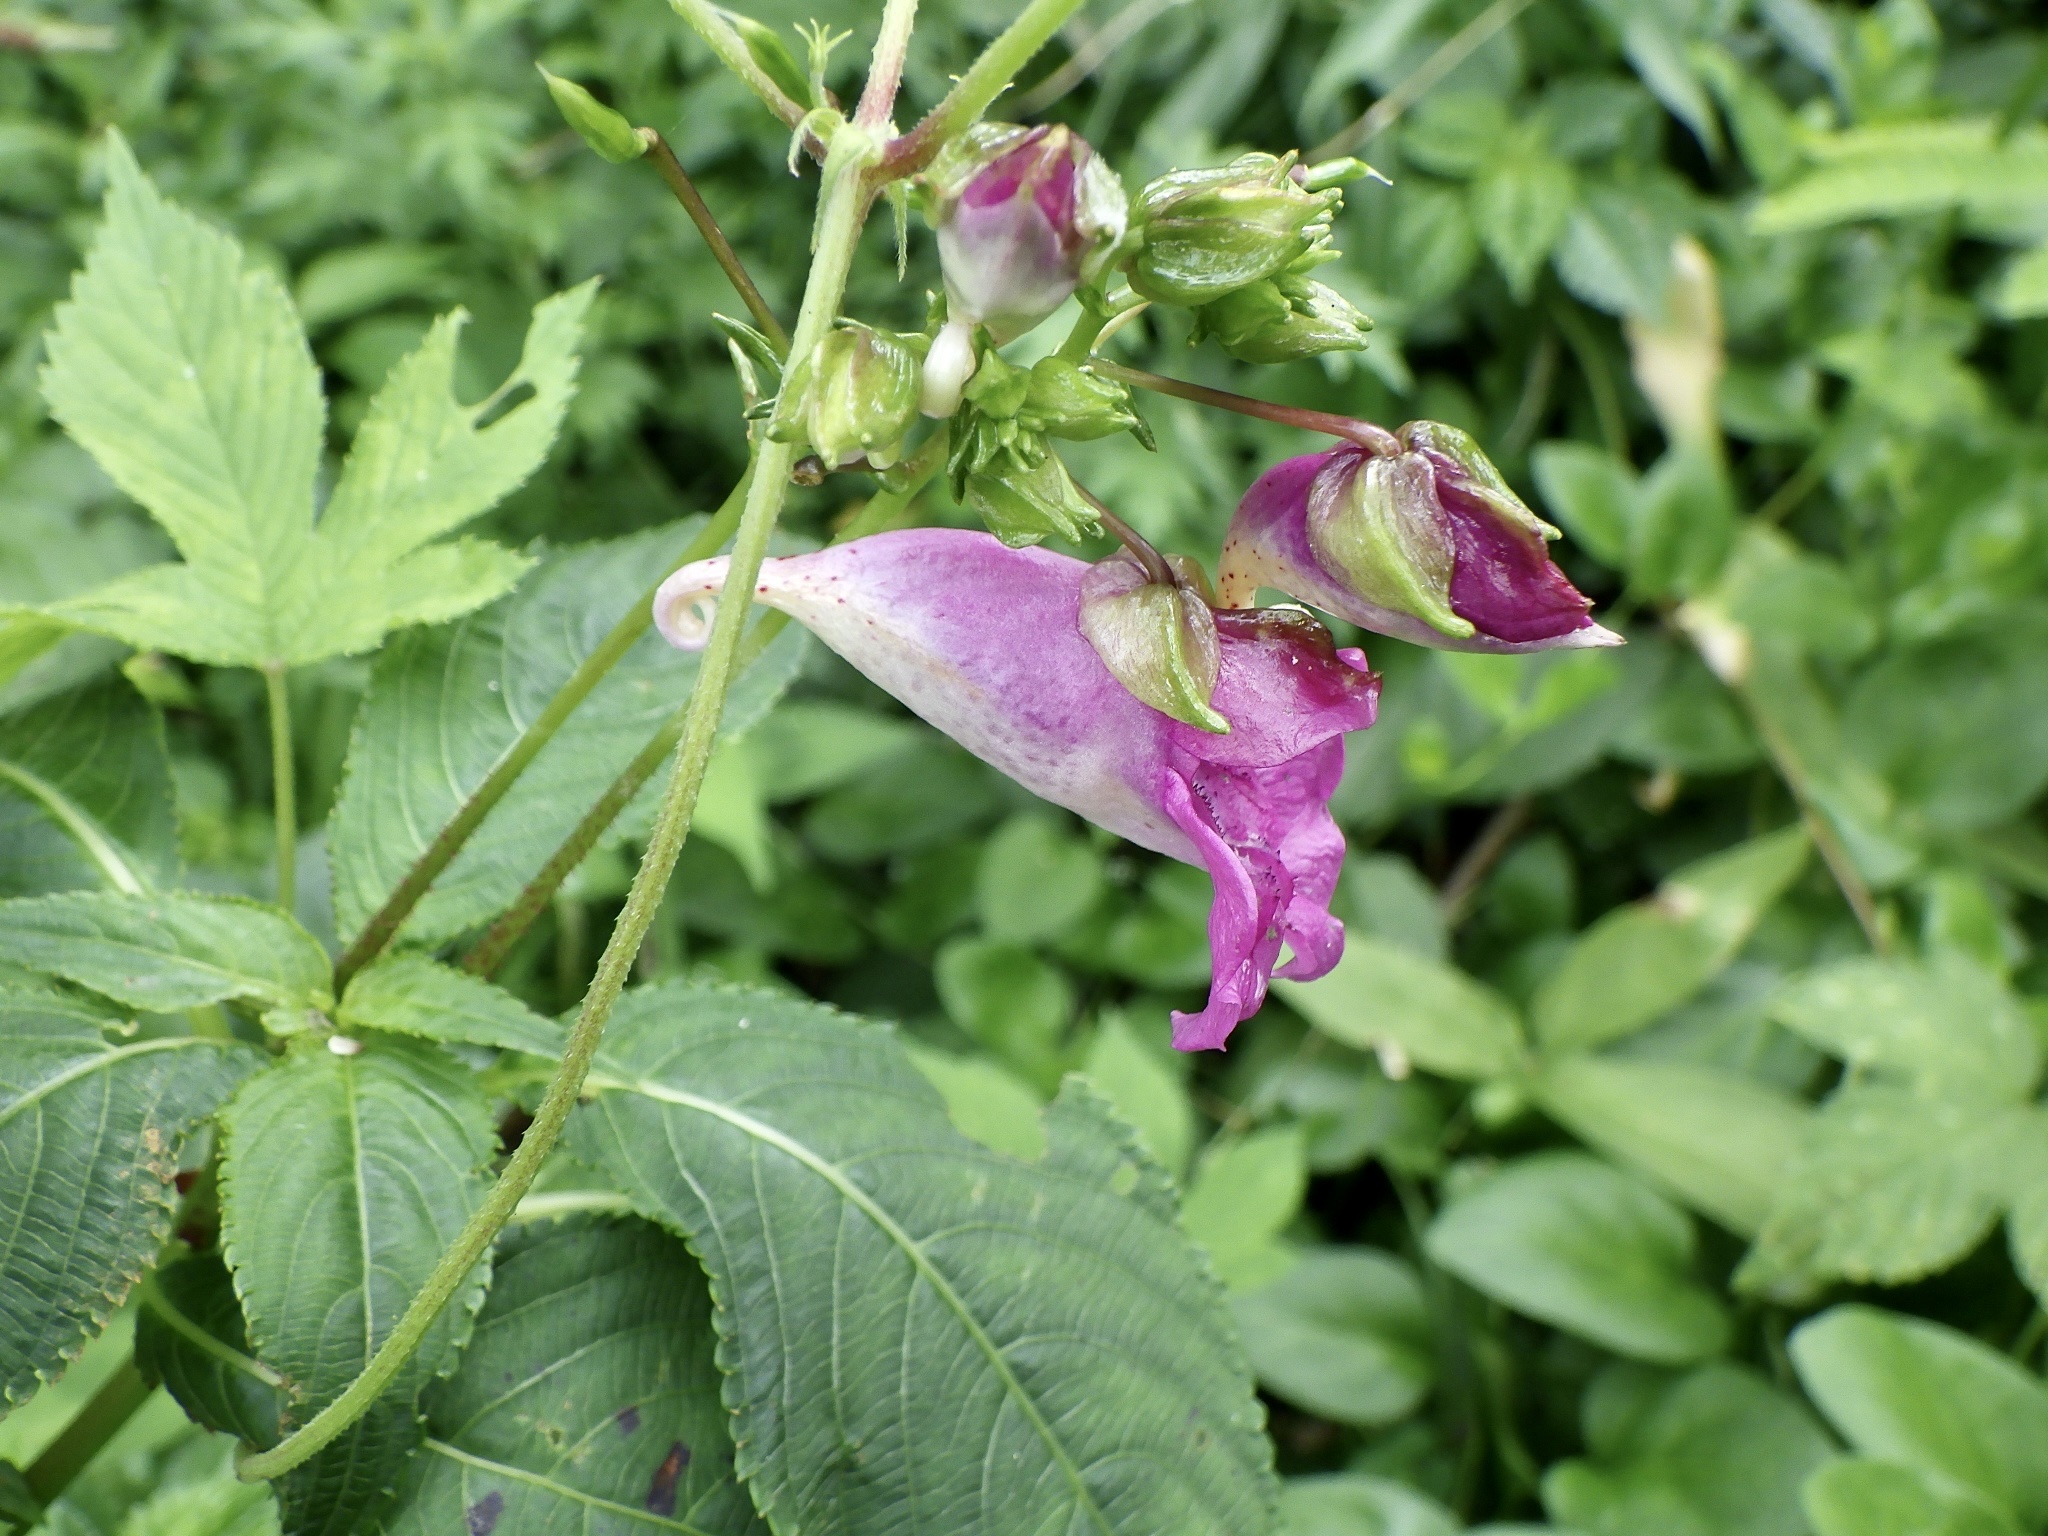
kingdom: Plantae
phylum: Tracheophyta
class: Magnoliopsida
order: Ericales
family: Balsaminaceae
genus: Impatiens
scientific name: Impatiens textorii
